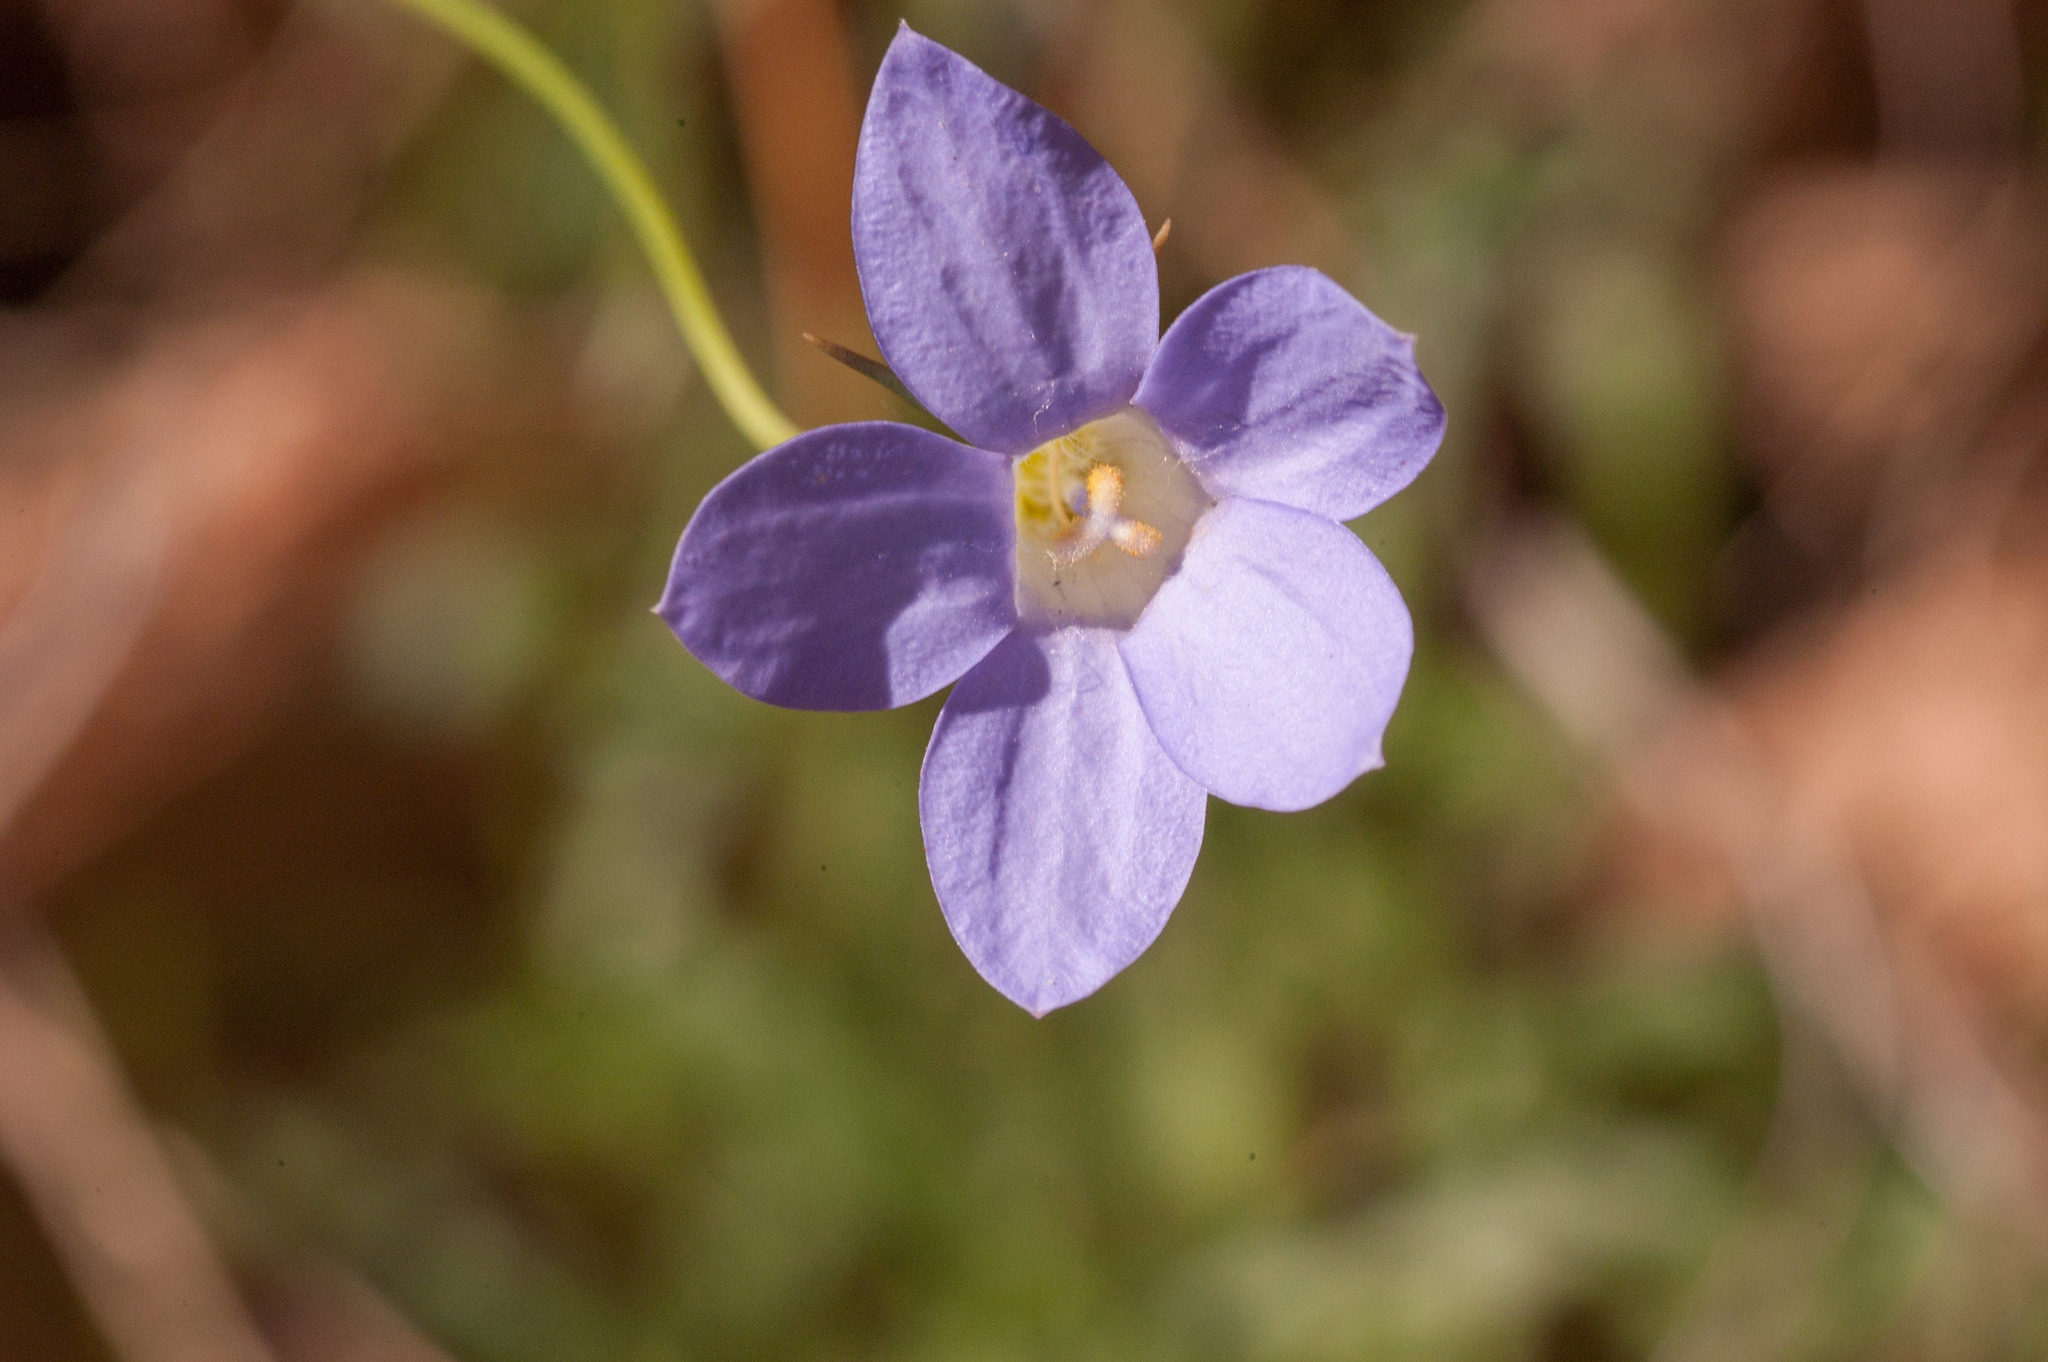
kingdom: Plantae
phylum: Tracheophyta
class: Magnoliopsida
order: Asterales
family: Campanulaceae
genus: Wahlenbergia
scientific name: Wahlenbergia
